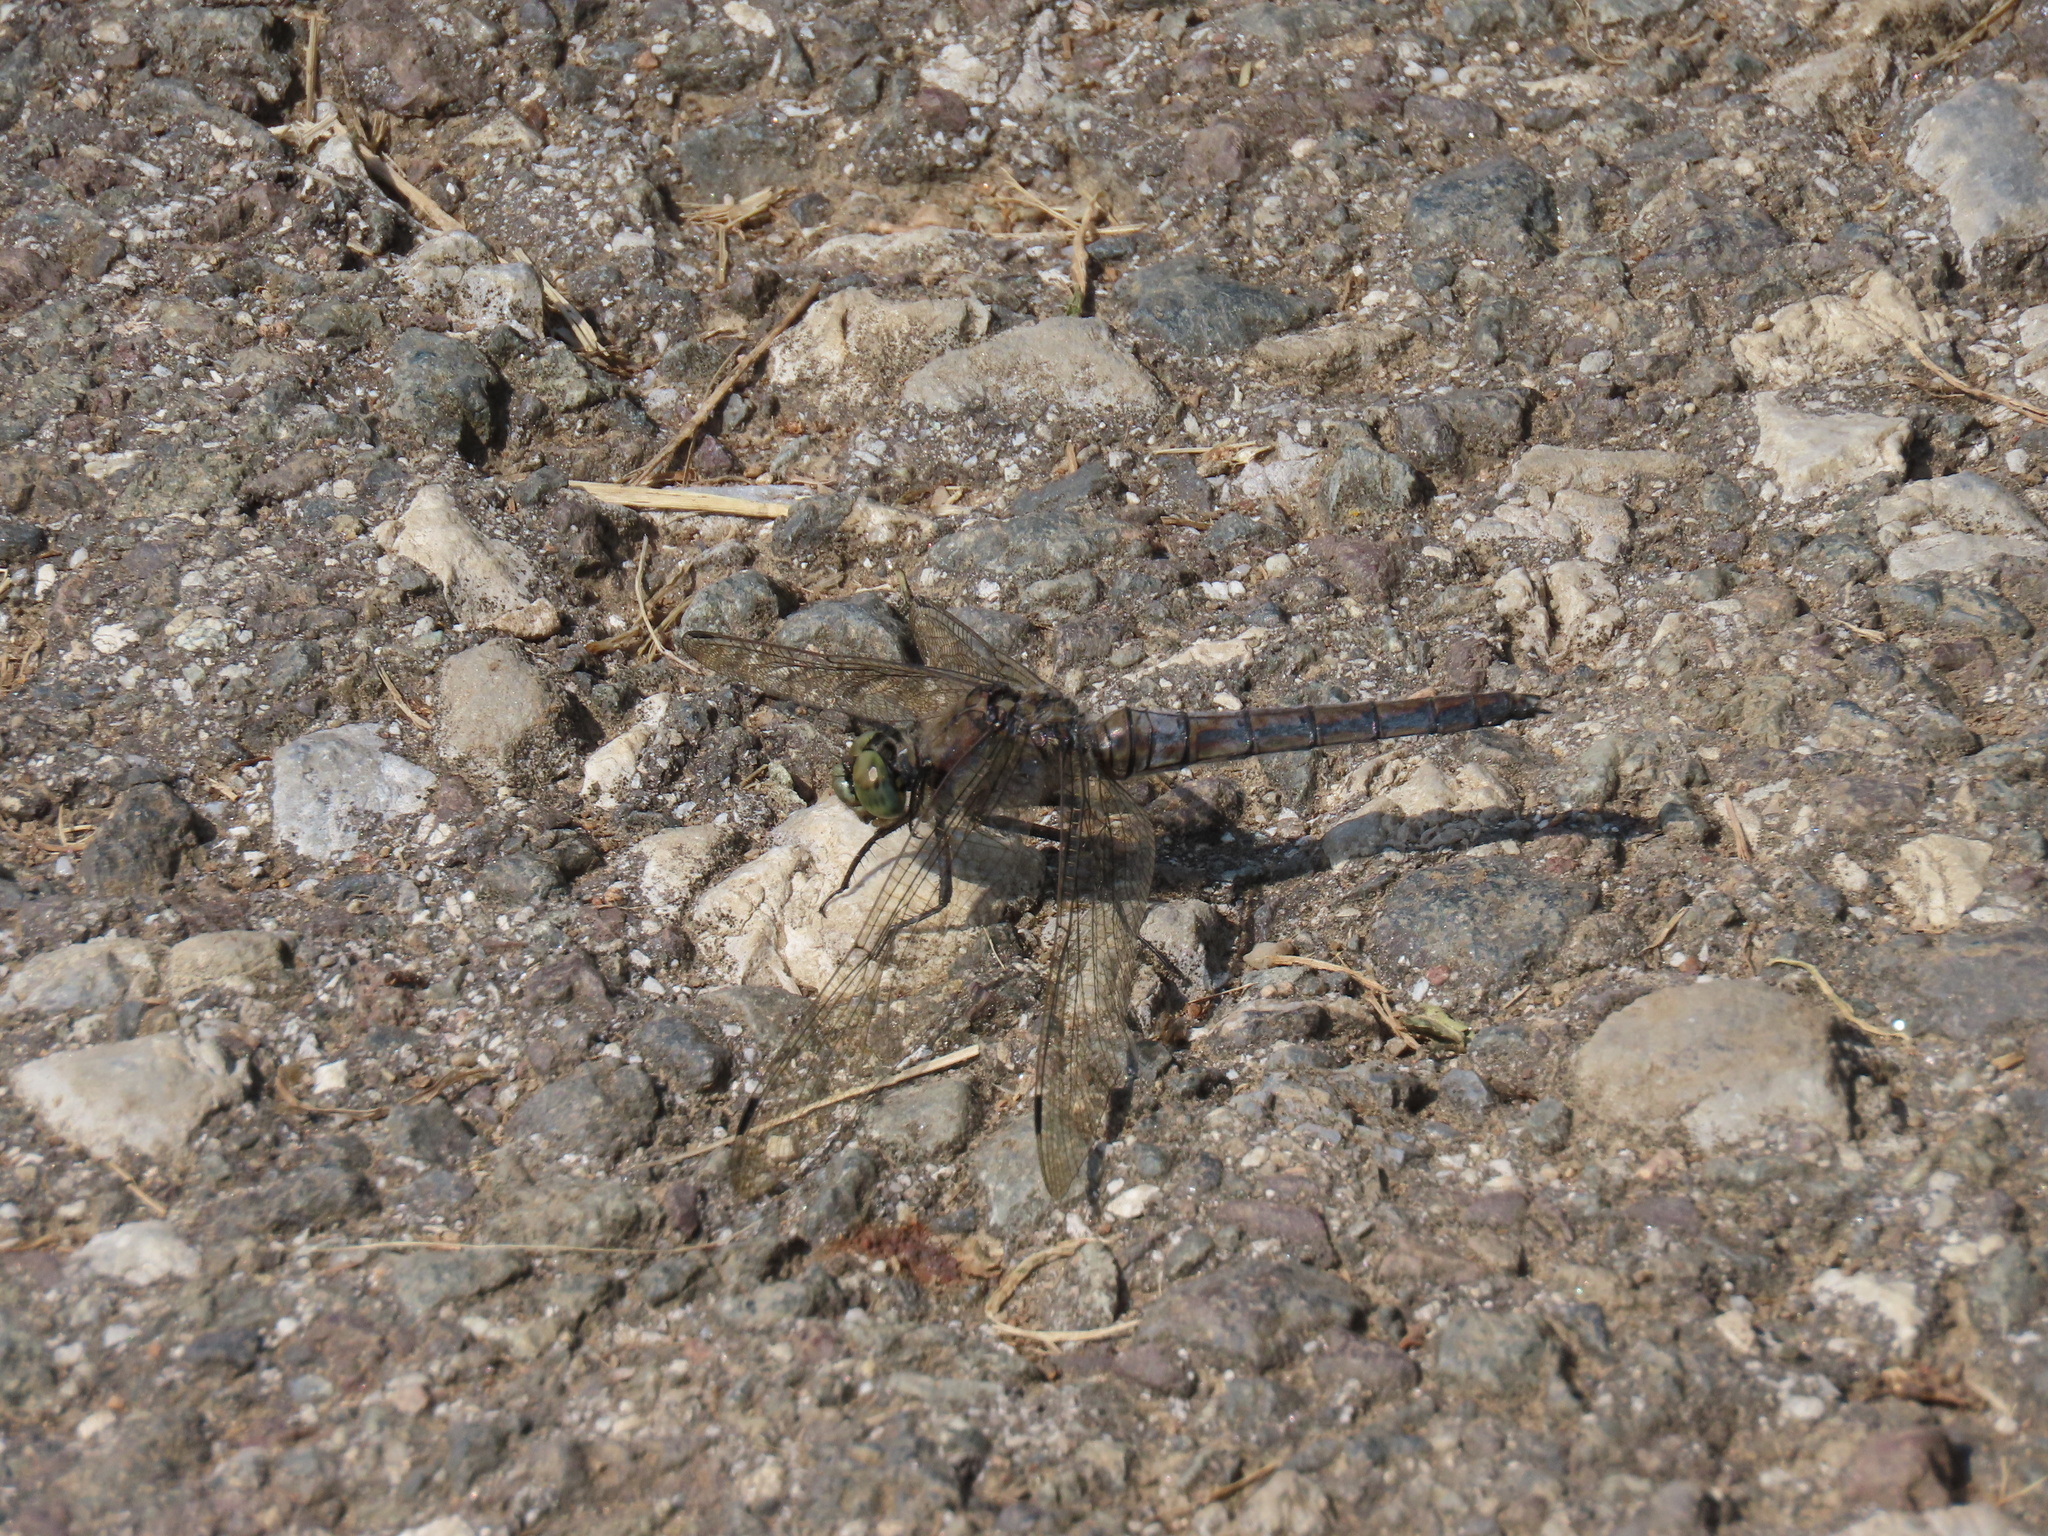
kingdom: Animalia
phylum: Arthropoda
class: Insecta
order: Odonata
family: Libellulidae
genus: Orthetrum
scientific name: Orthetrum cancellatum
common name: Black-tailed skimmer
